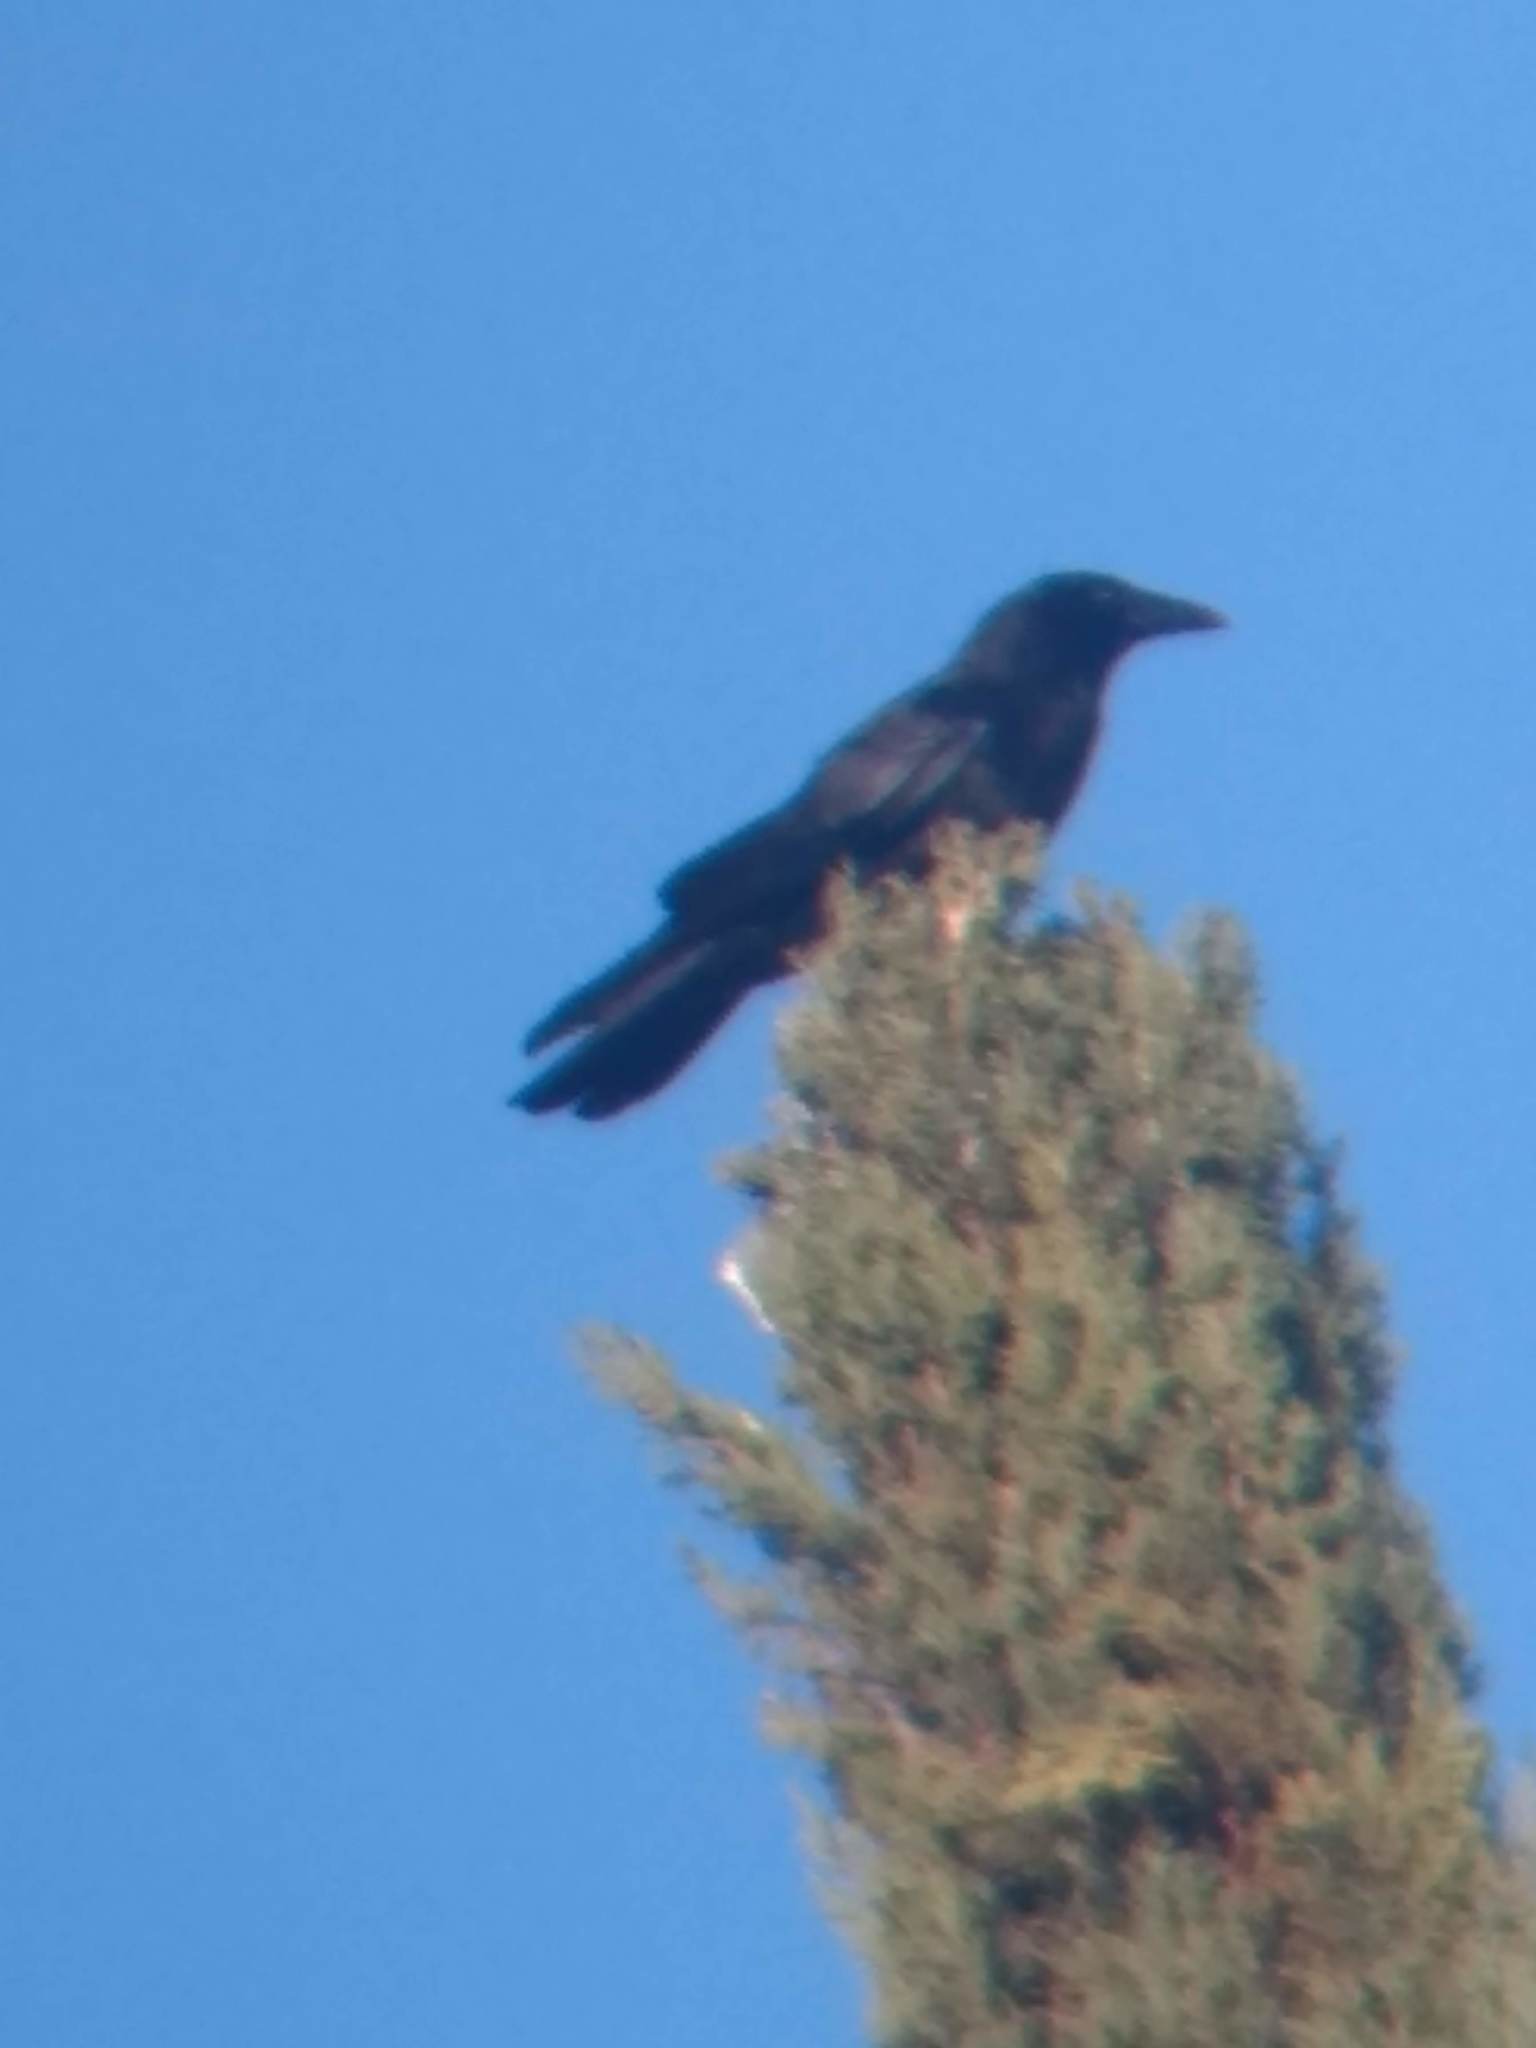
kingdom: Animalia
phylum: Chordata
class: Aves
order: Passeriformes
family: Corvidae
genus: Corvus
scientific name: Corvus corax
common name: Common raven
